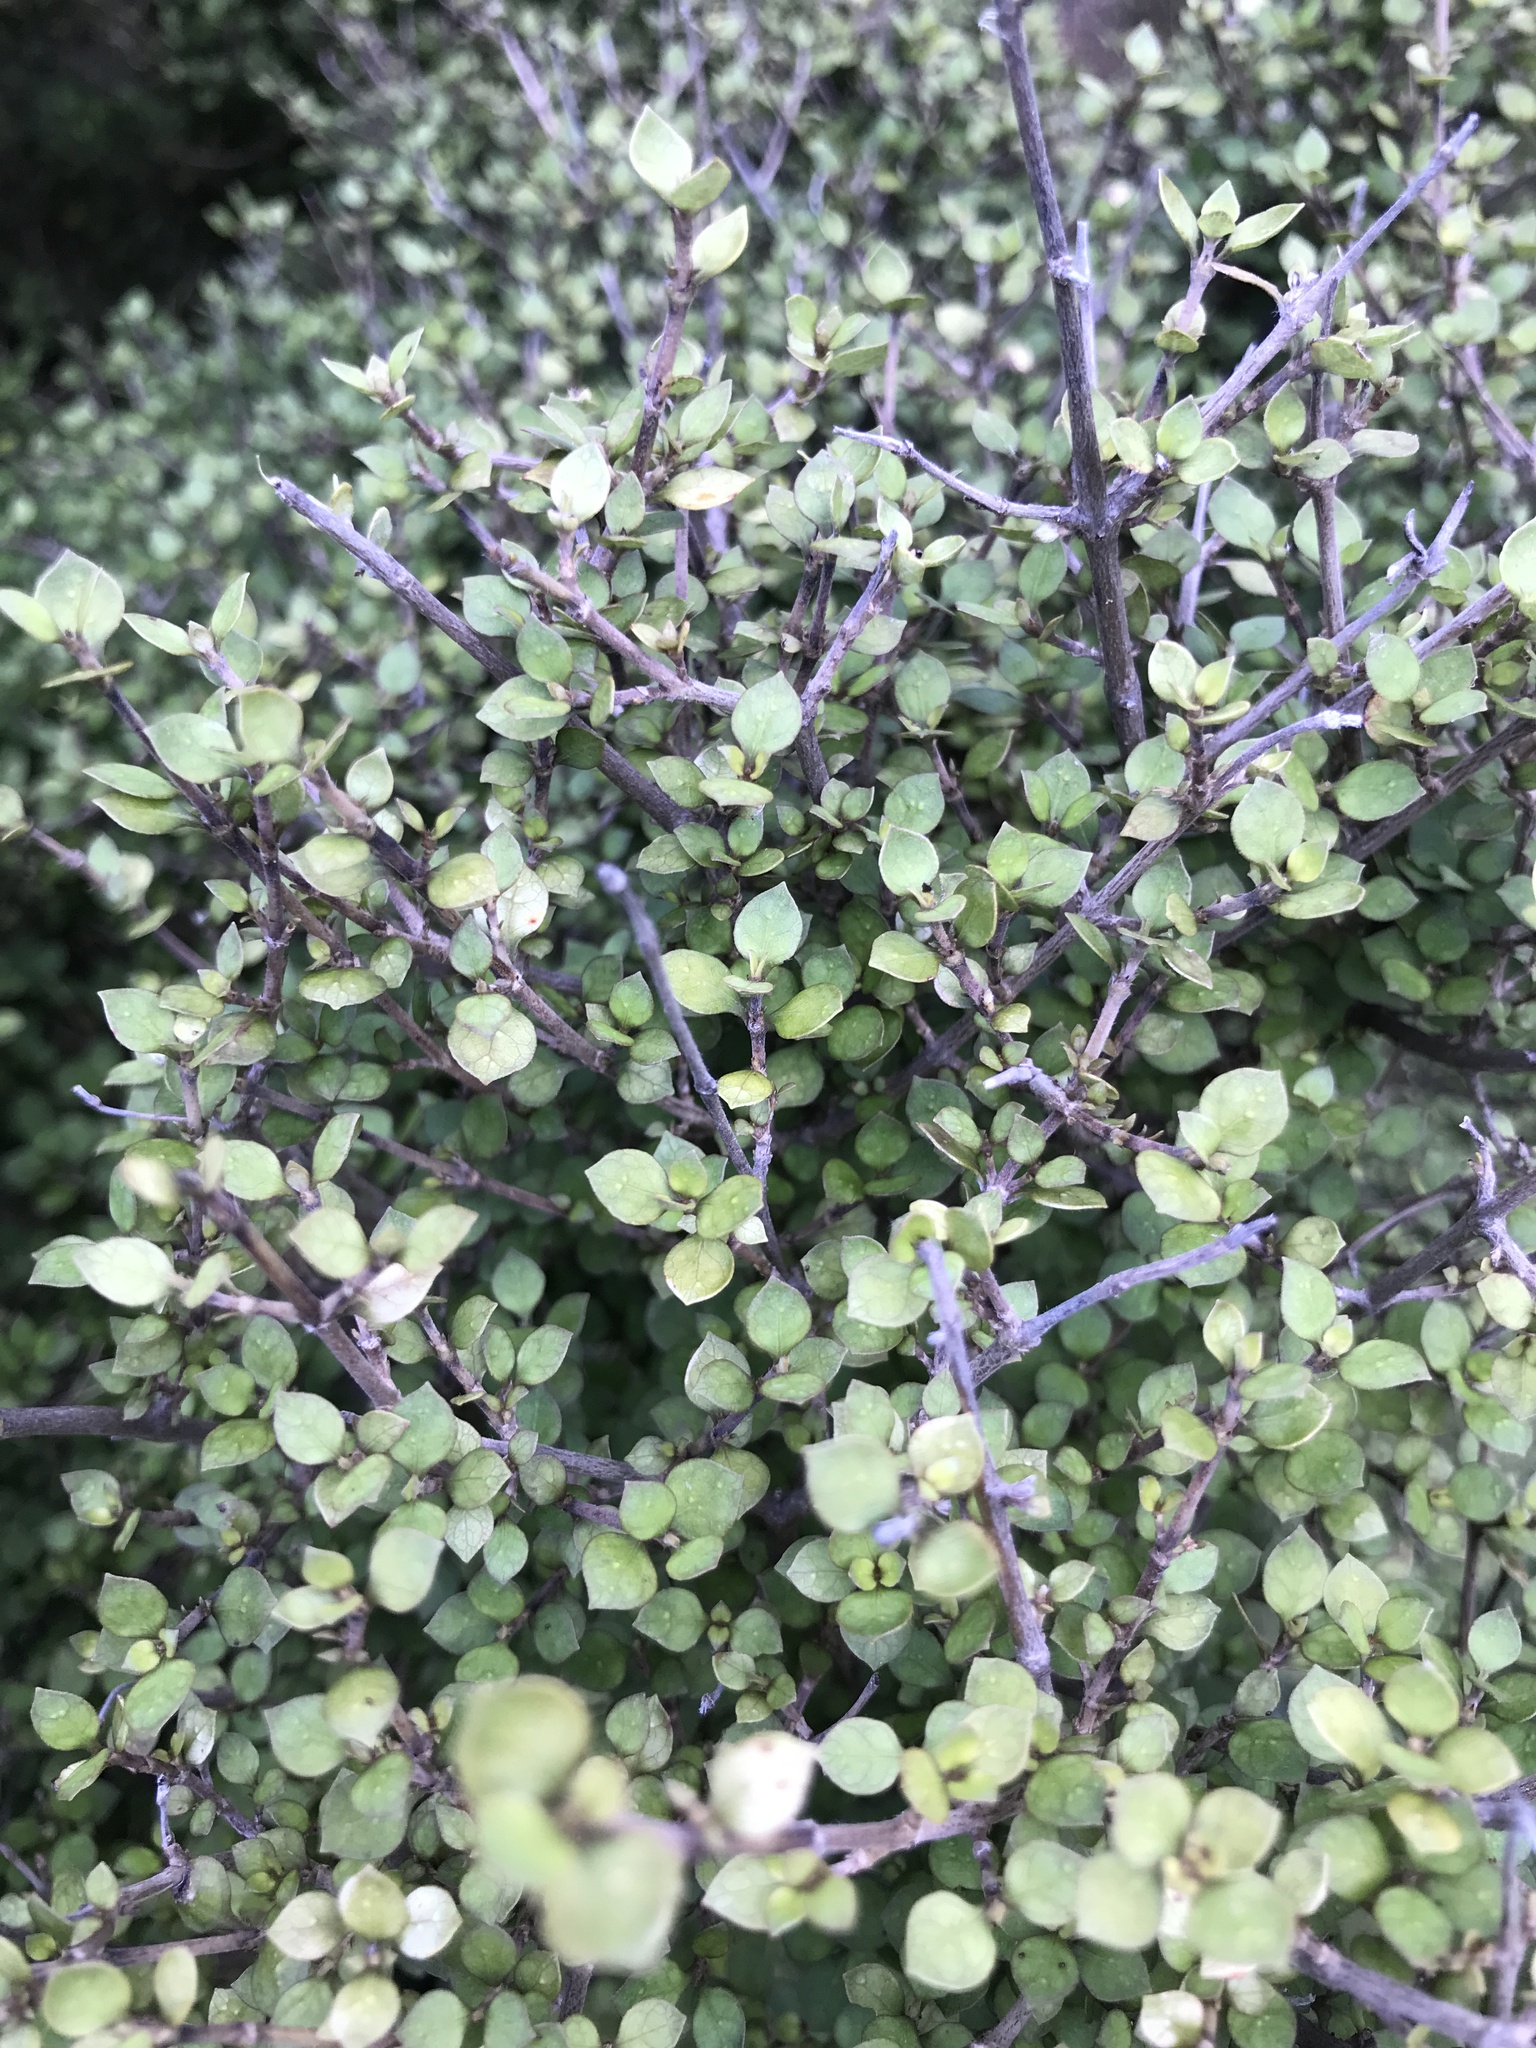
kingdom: Plantae
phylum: Tracheophyta
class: Magnoliopsida
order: Gentianales
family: Rubiaceae
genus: Coprosma
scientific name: Coprosma areolata
